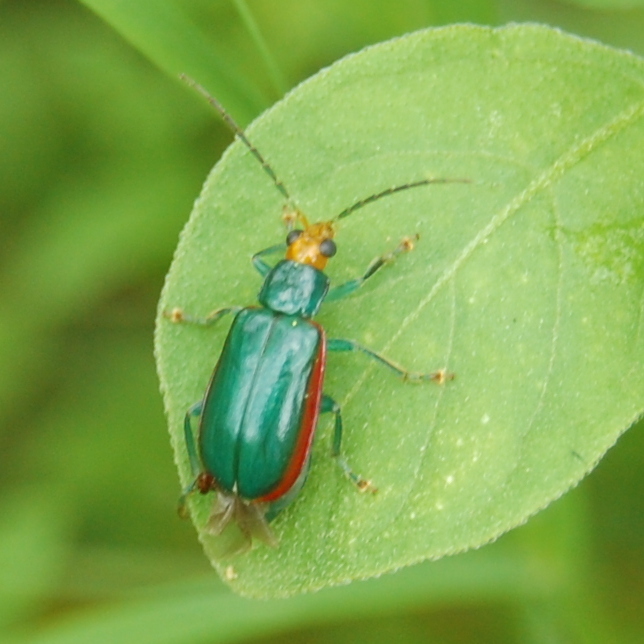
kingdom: Animalia
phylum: Arthropoda
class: Insecta
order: Coleoptera
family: Chrysomelidae
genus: Diabrotica
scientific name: Diabrotica
